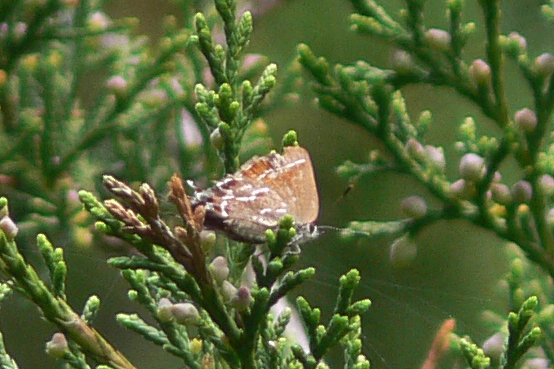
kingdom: Animalia
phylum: Arthropoda
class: Insecta
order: Lepidoptera
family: Lycaenidae
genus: Mitoura
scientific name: Mitoura gryneus
